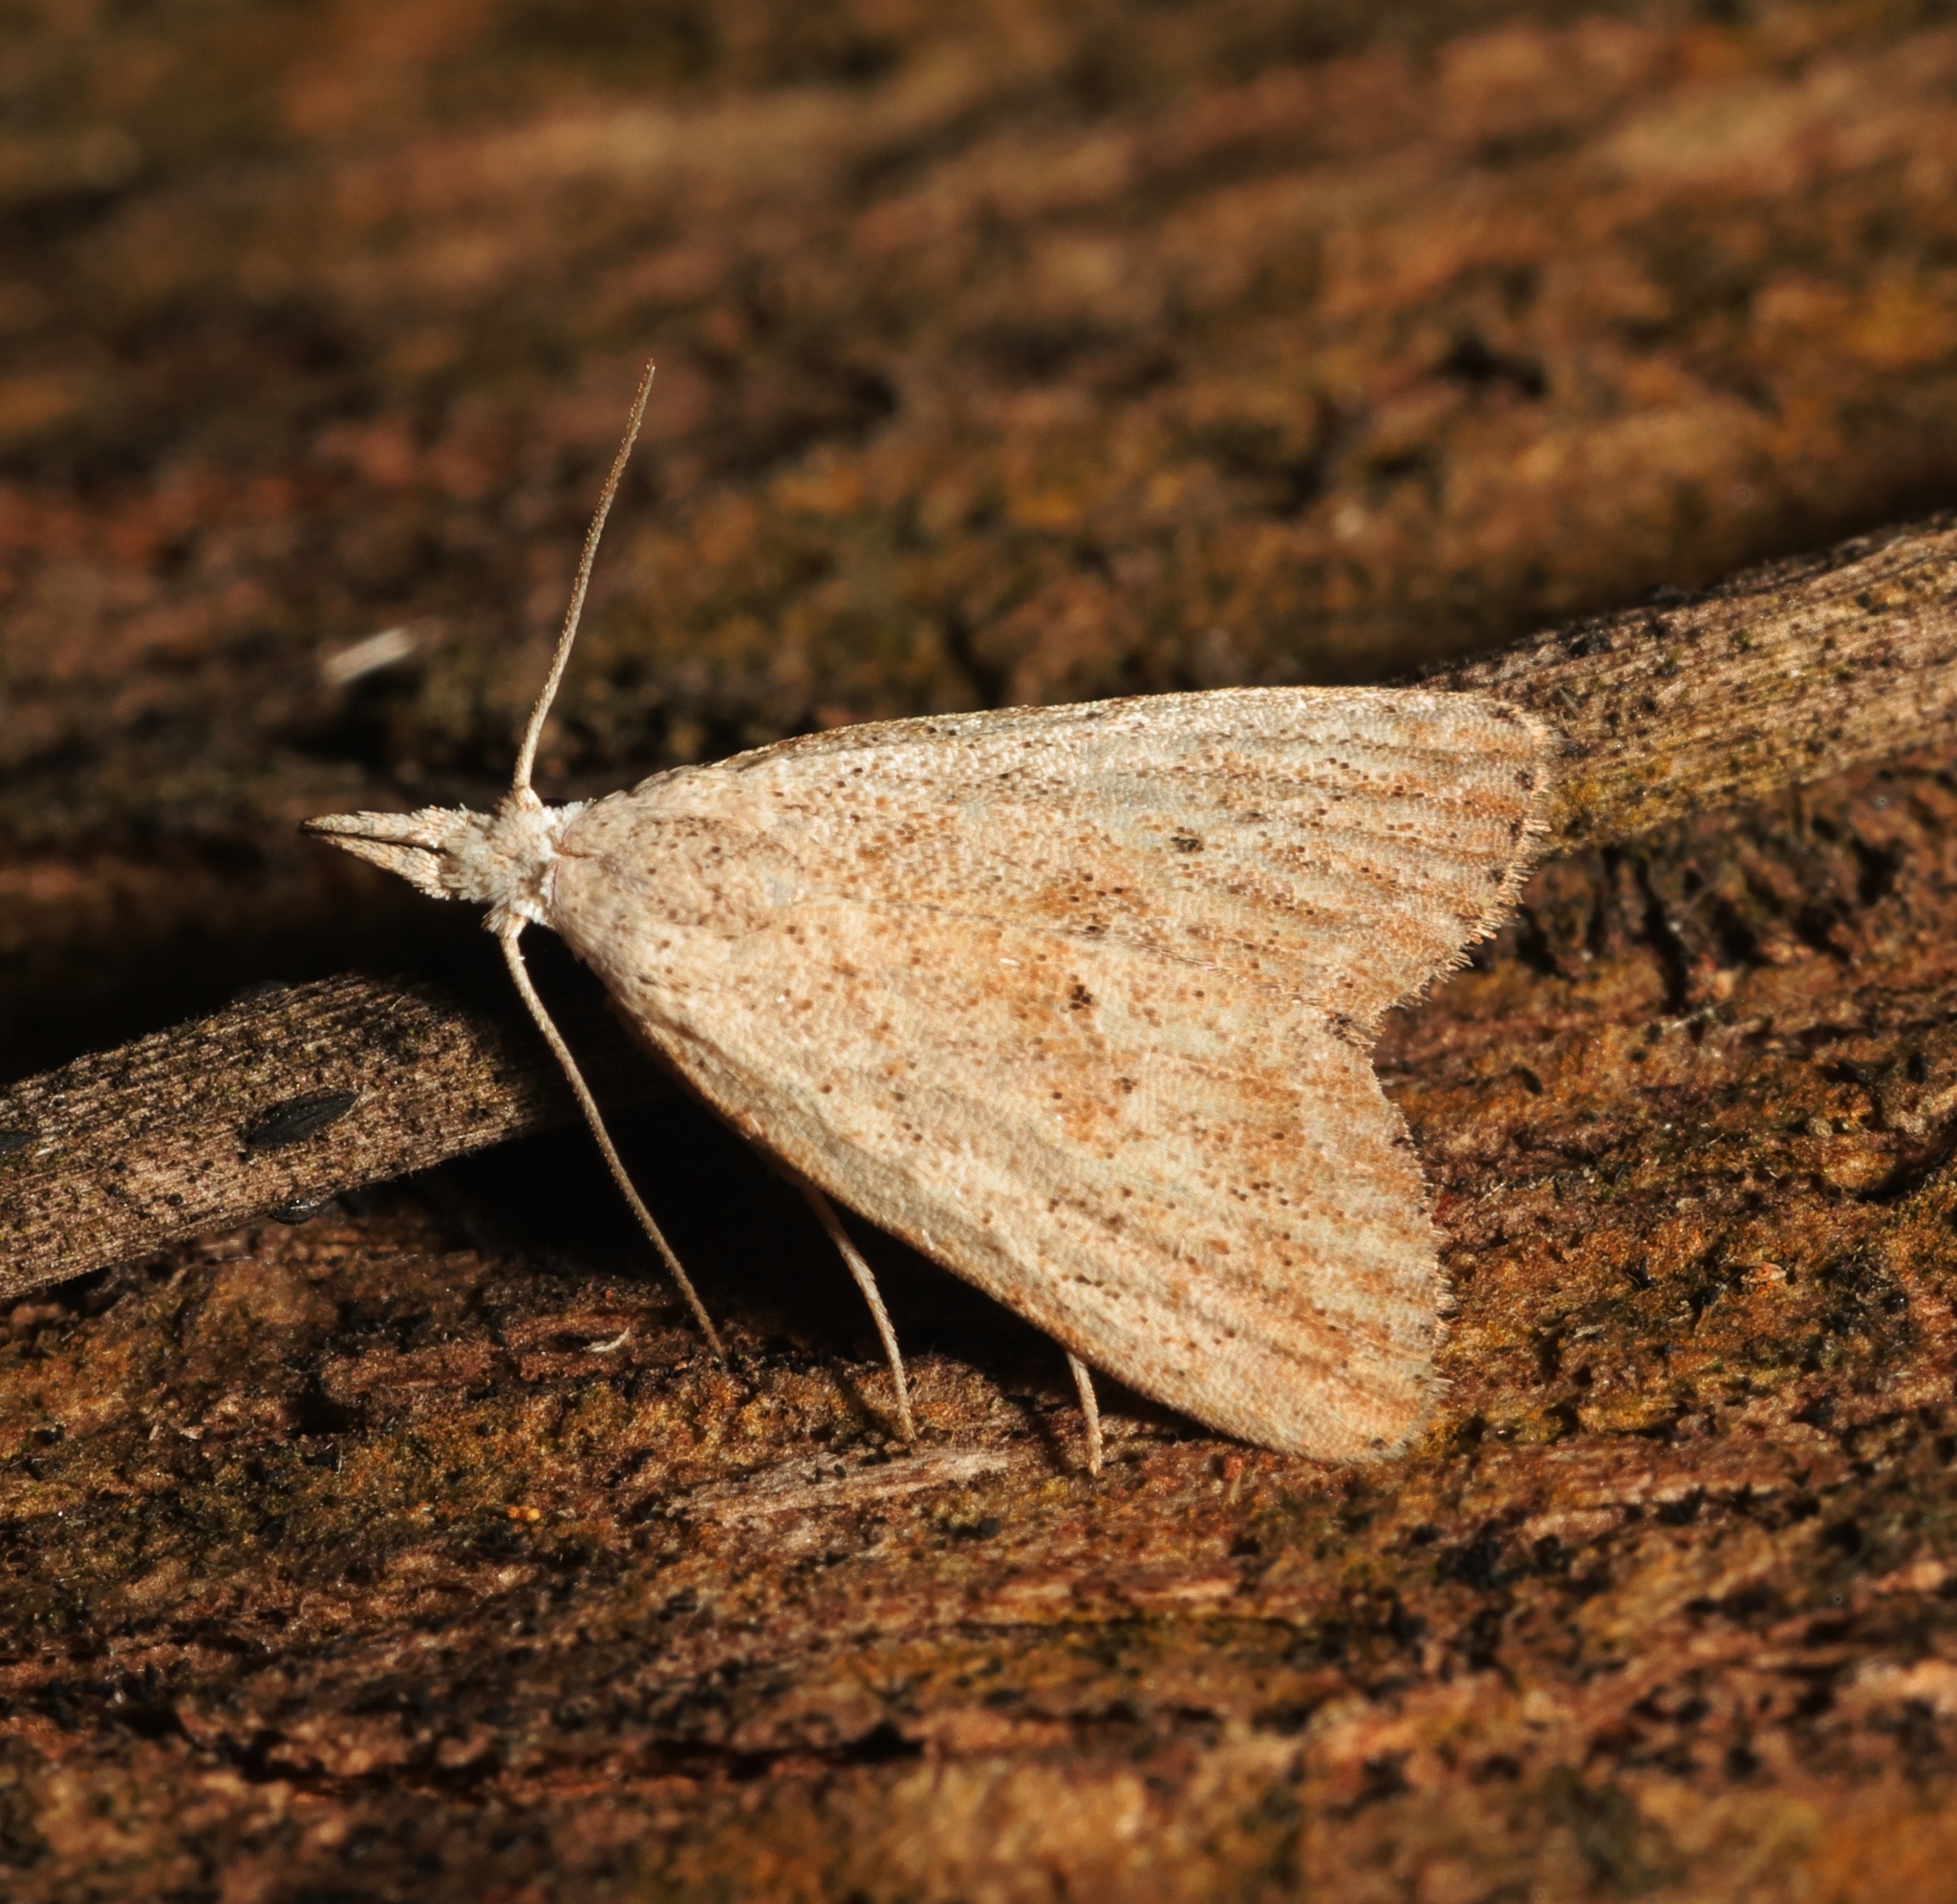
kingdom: Animalia
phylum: Arthropoda
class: Insecta
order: Lepidoptera
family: Nolidae
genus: Meganola
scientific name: Meganola brunellus
